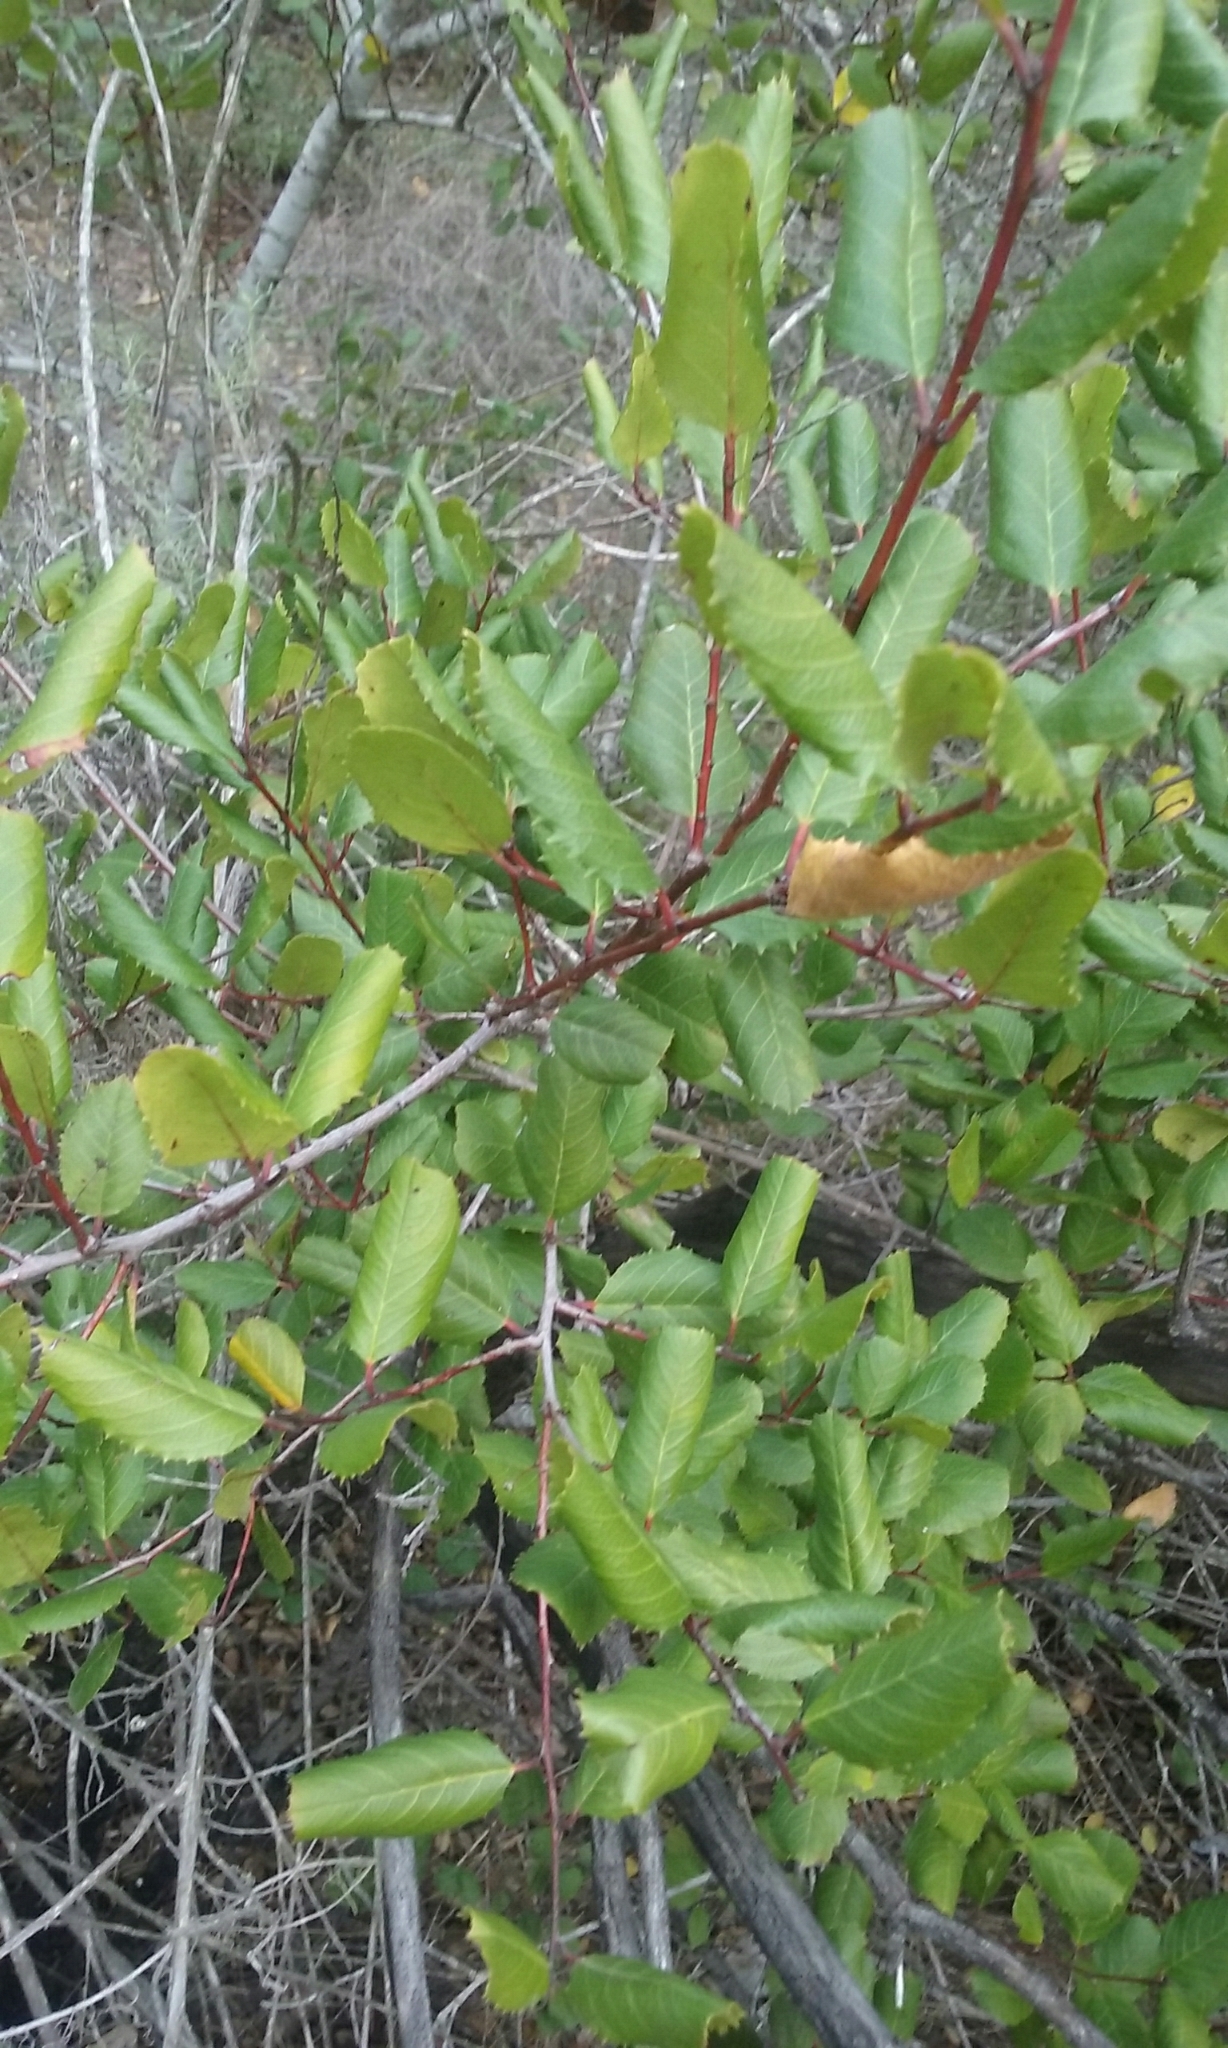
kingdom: Plantae
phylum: Tracheophyta
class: Magnoliopsida
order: Rosales
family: Rhamnaceae
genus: Endotropis
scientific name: Endotropis crocea
